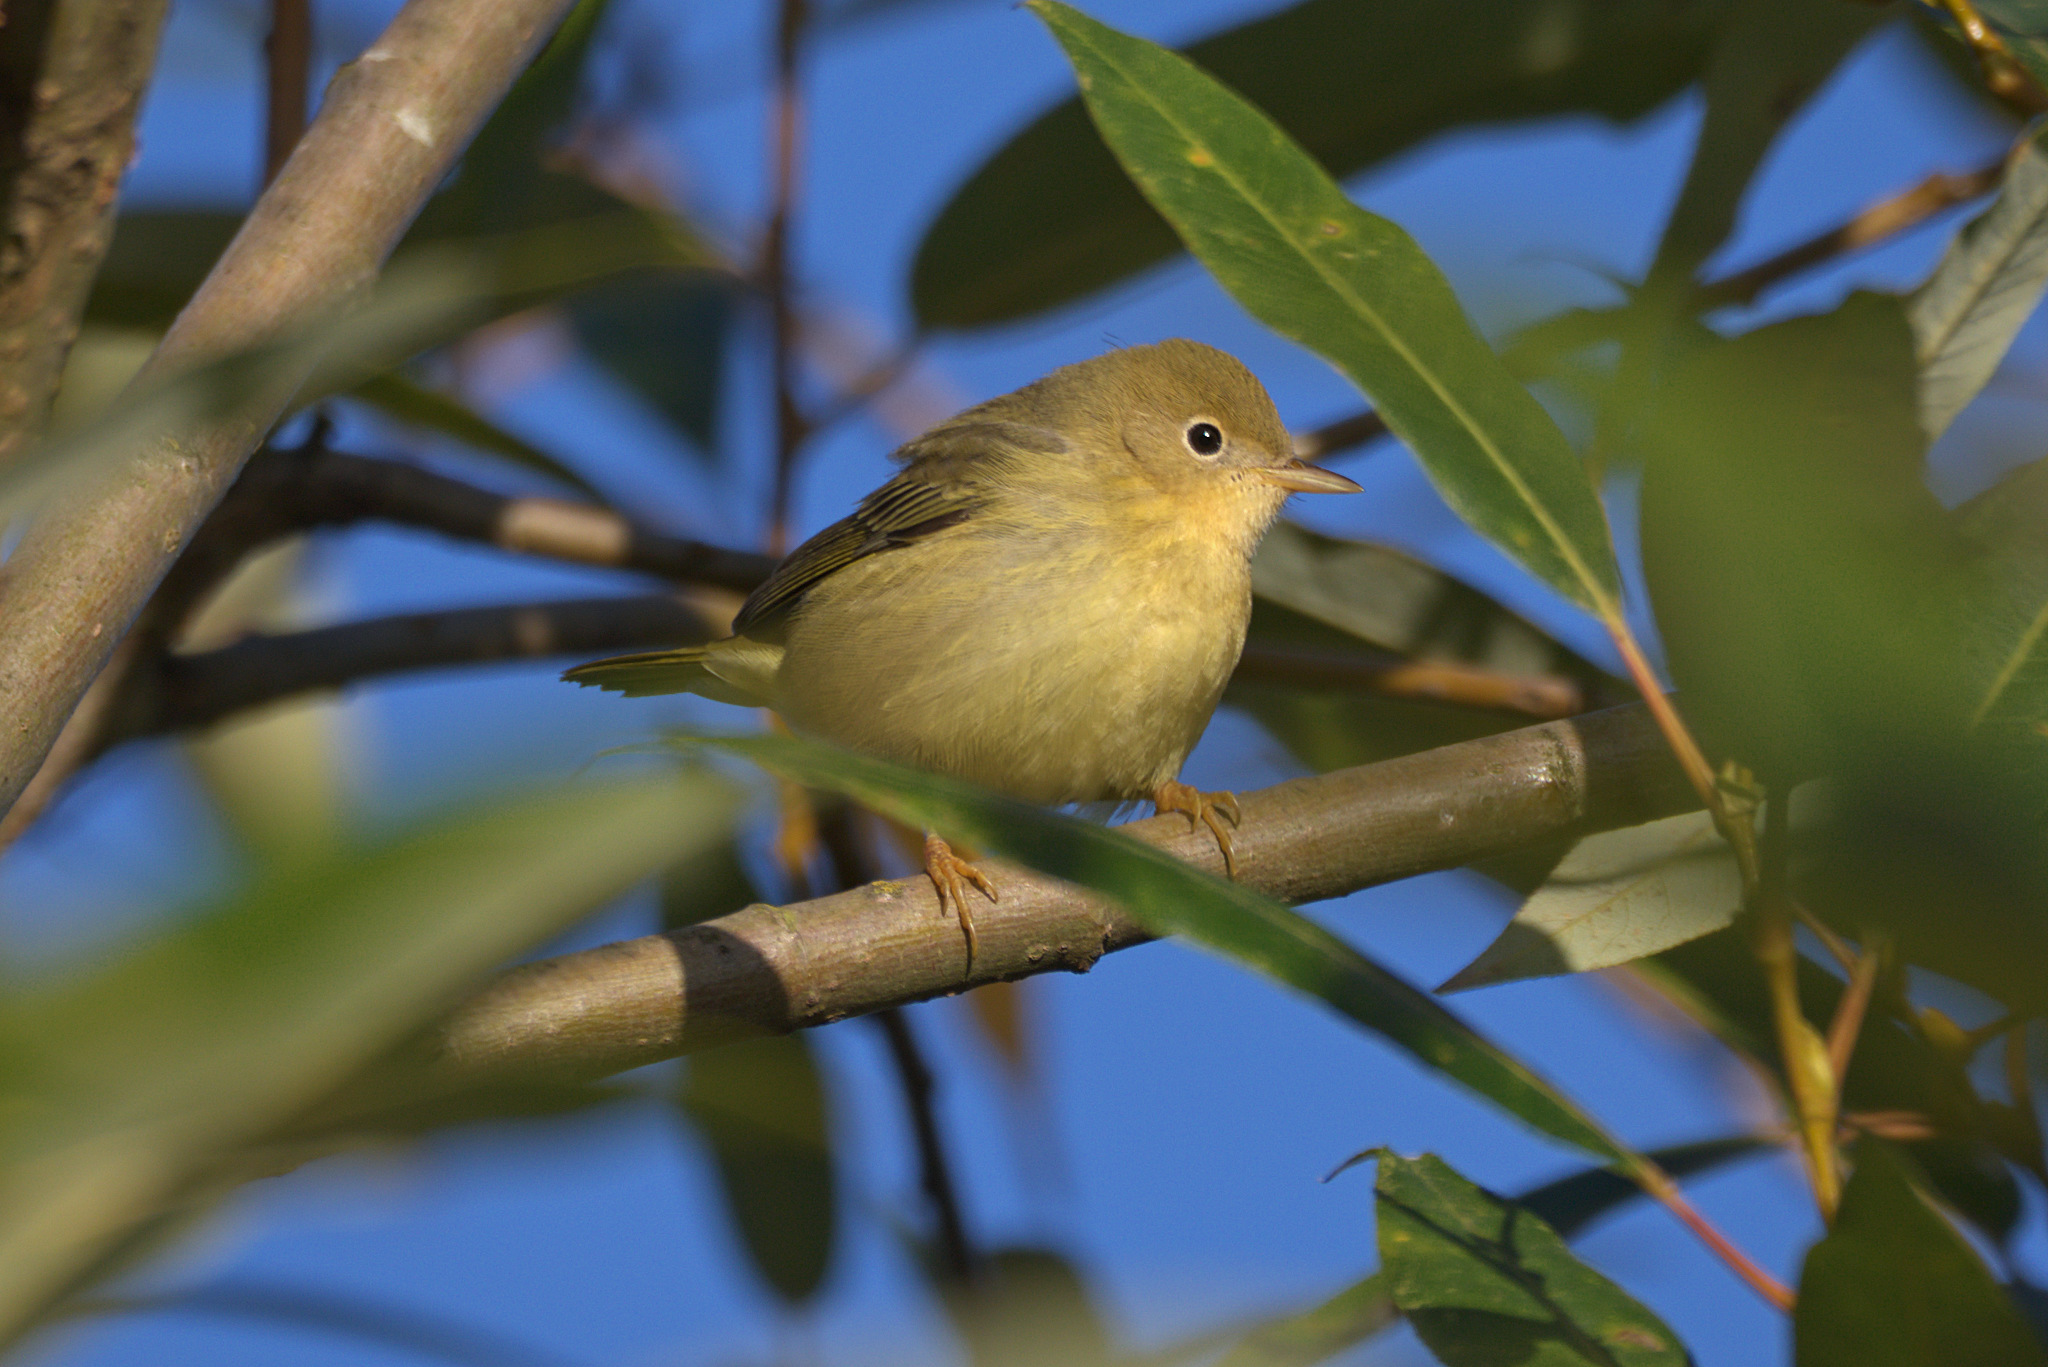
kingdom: Animalia
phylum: Chordata
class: Aves
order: Passeriformes
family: Parulidae
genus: Geothlypis
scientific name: Geothlypis trichas
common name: Common yellowthroat
